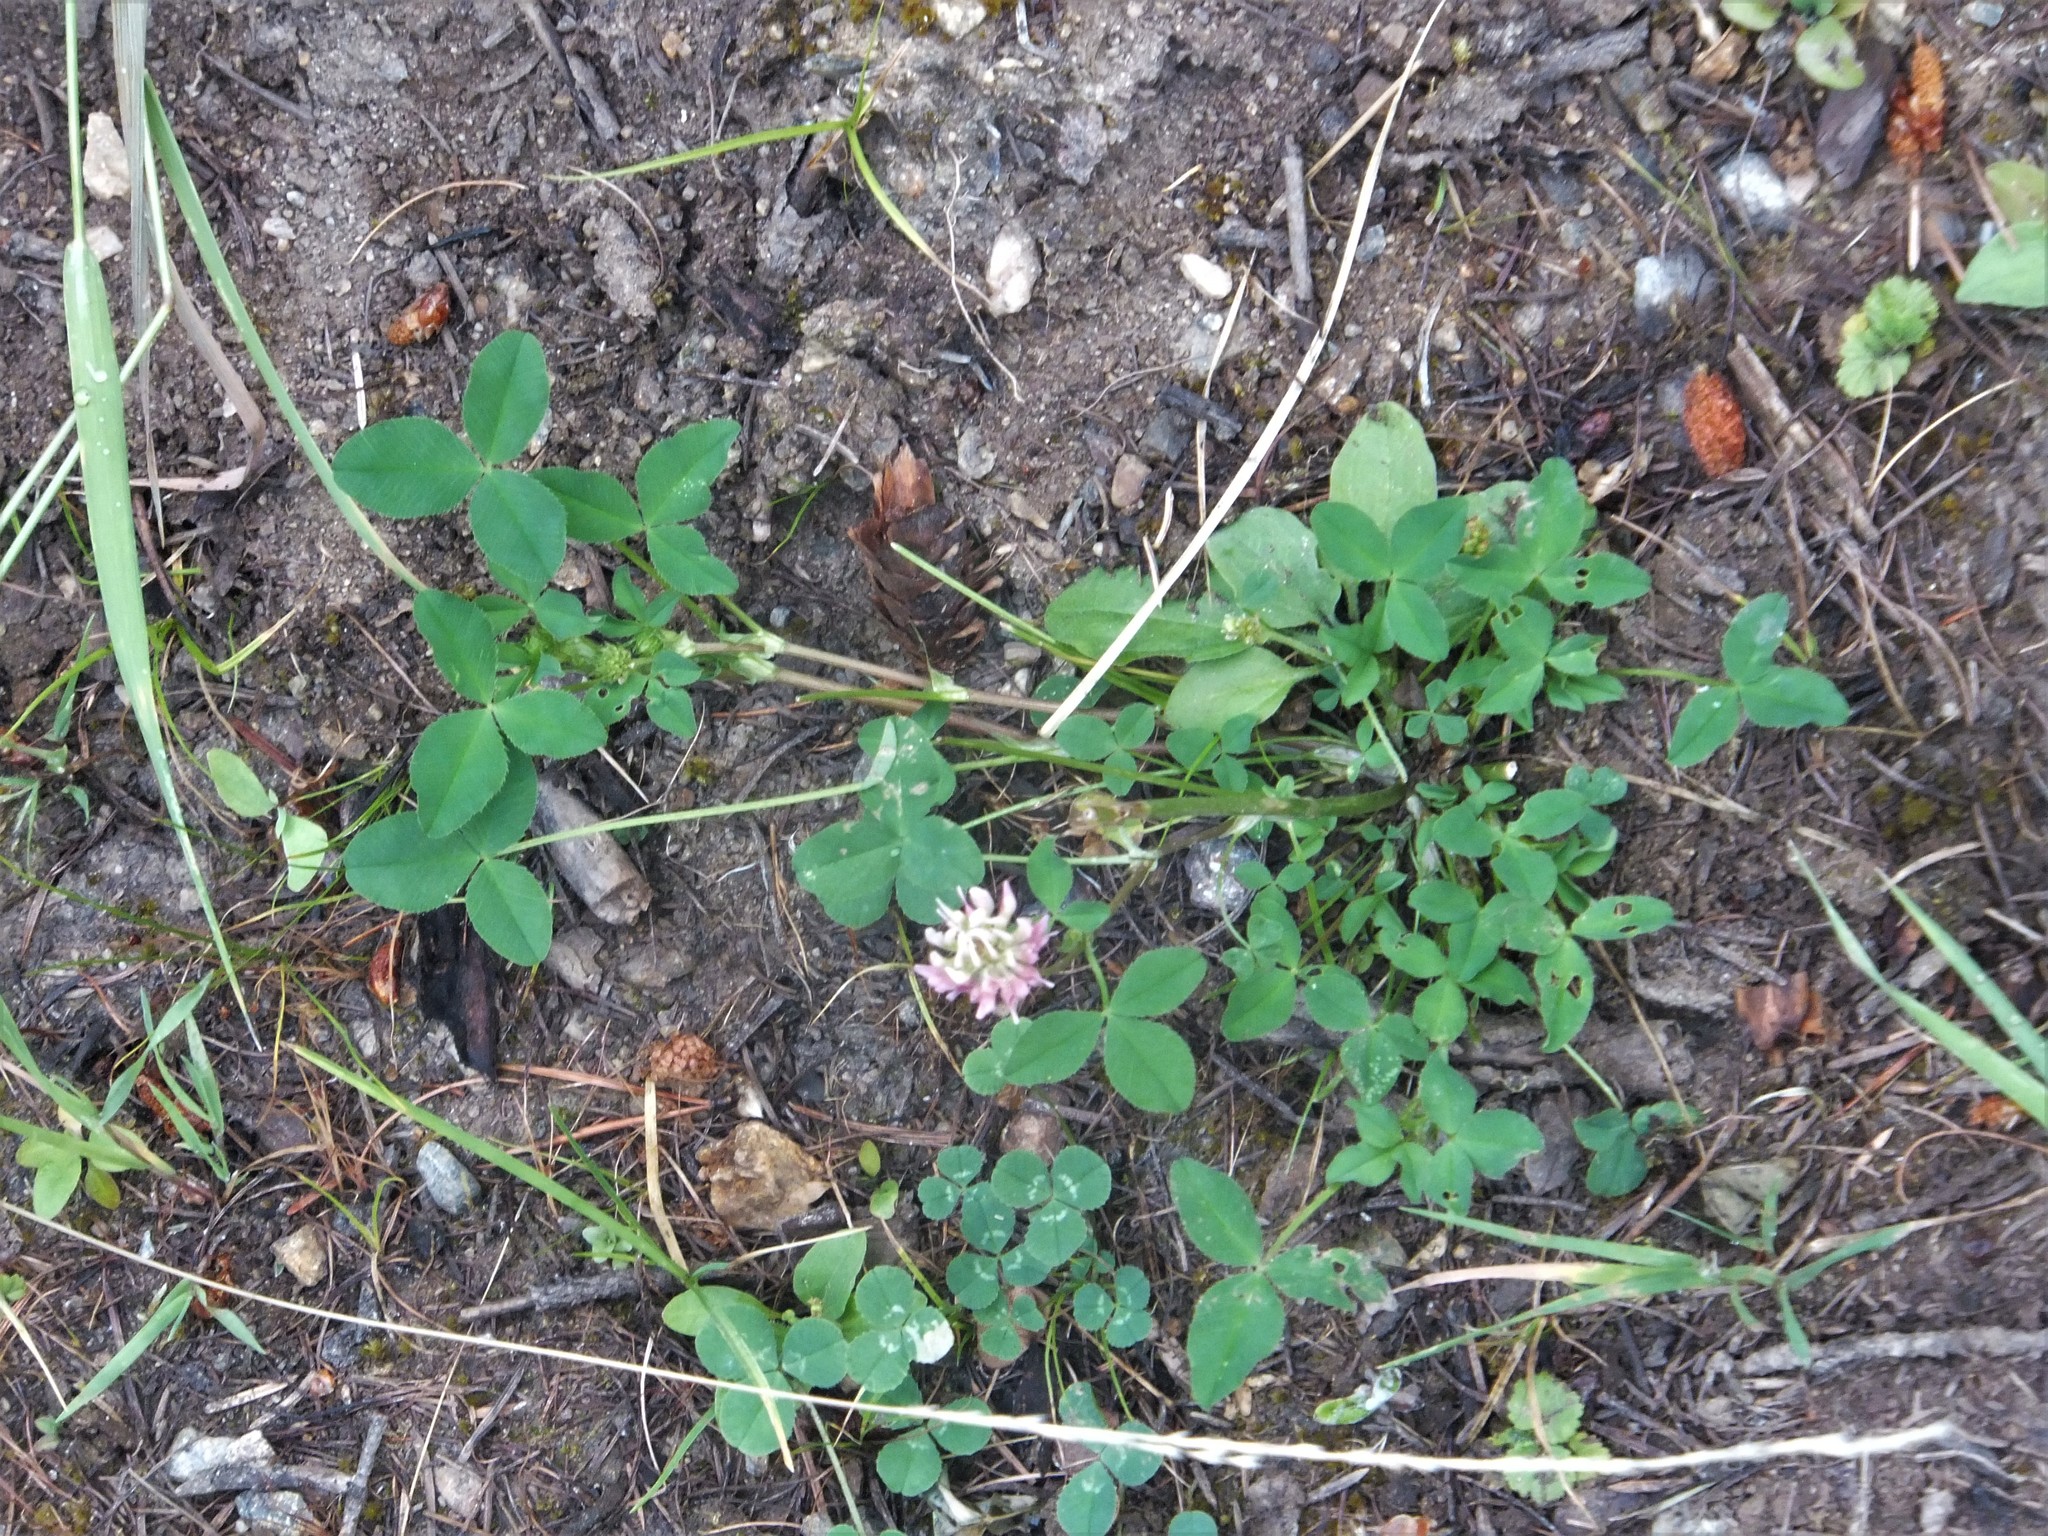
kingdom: Plantae
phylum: Tracheophyta
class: Magnoliopsida
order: Fabales
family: Fabaceae
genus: Trifolium
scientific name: Trifolium hybridum
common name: Alsike clover
